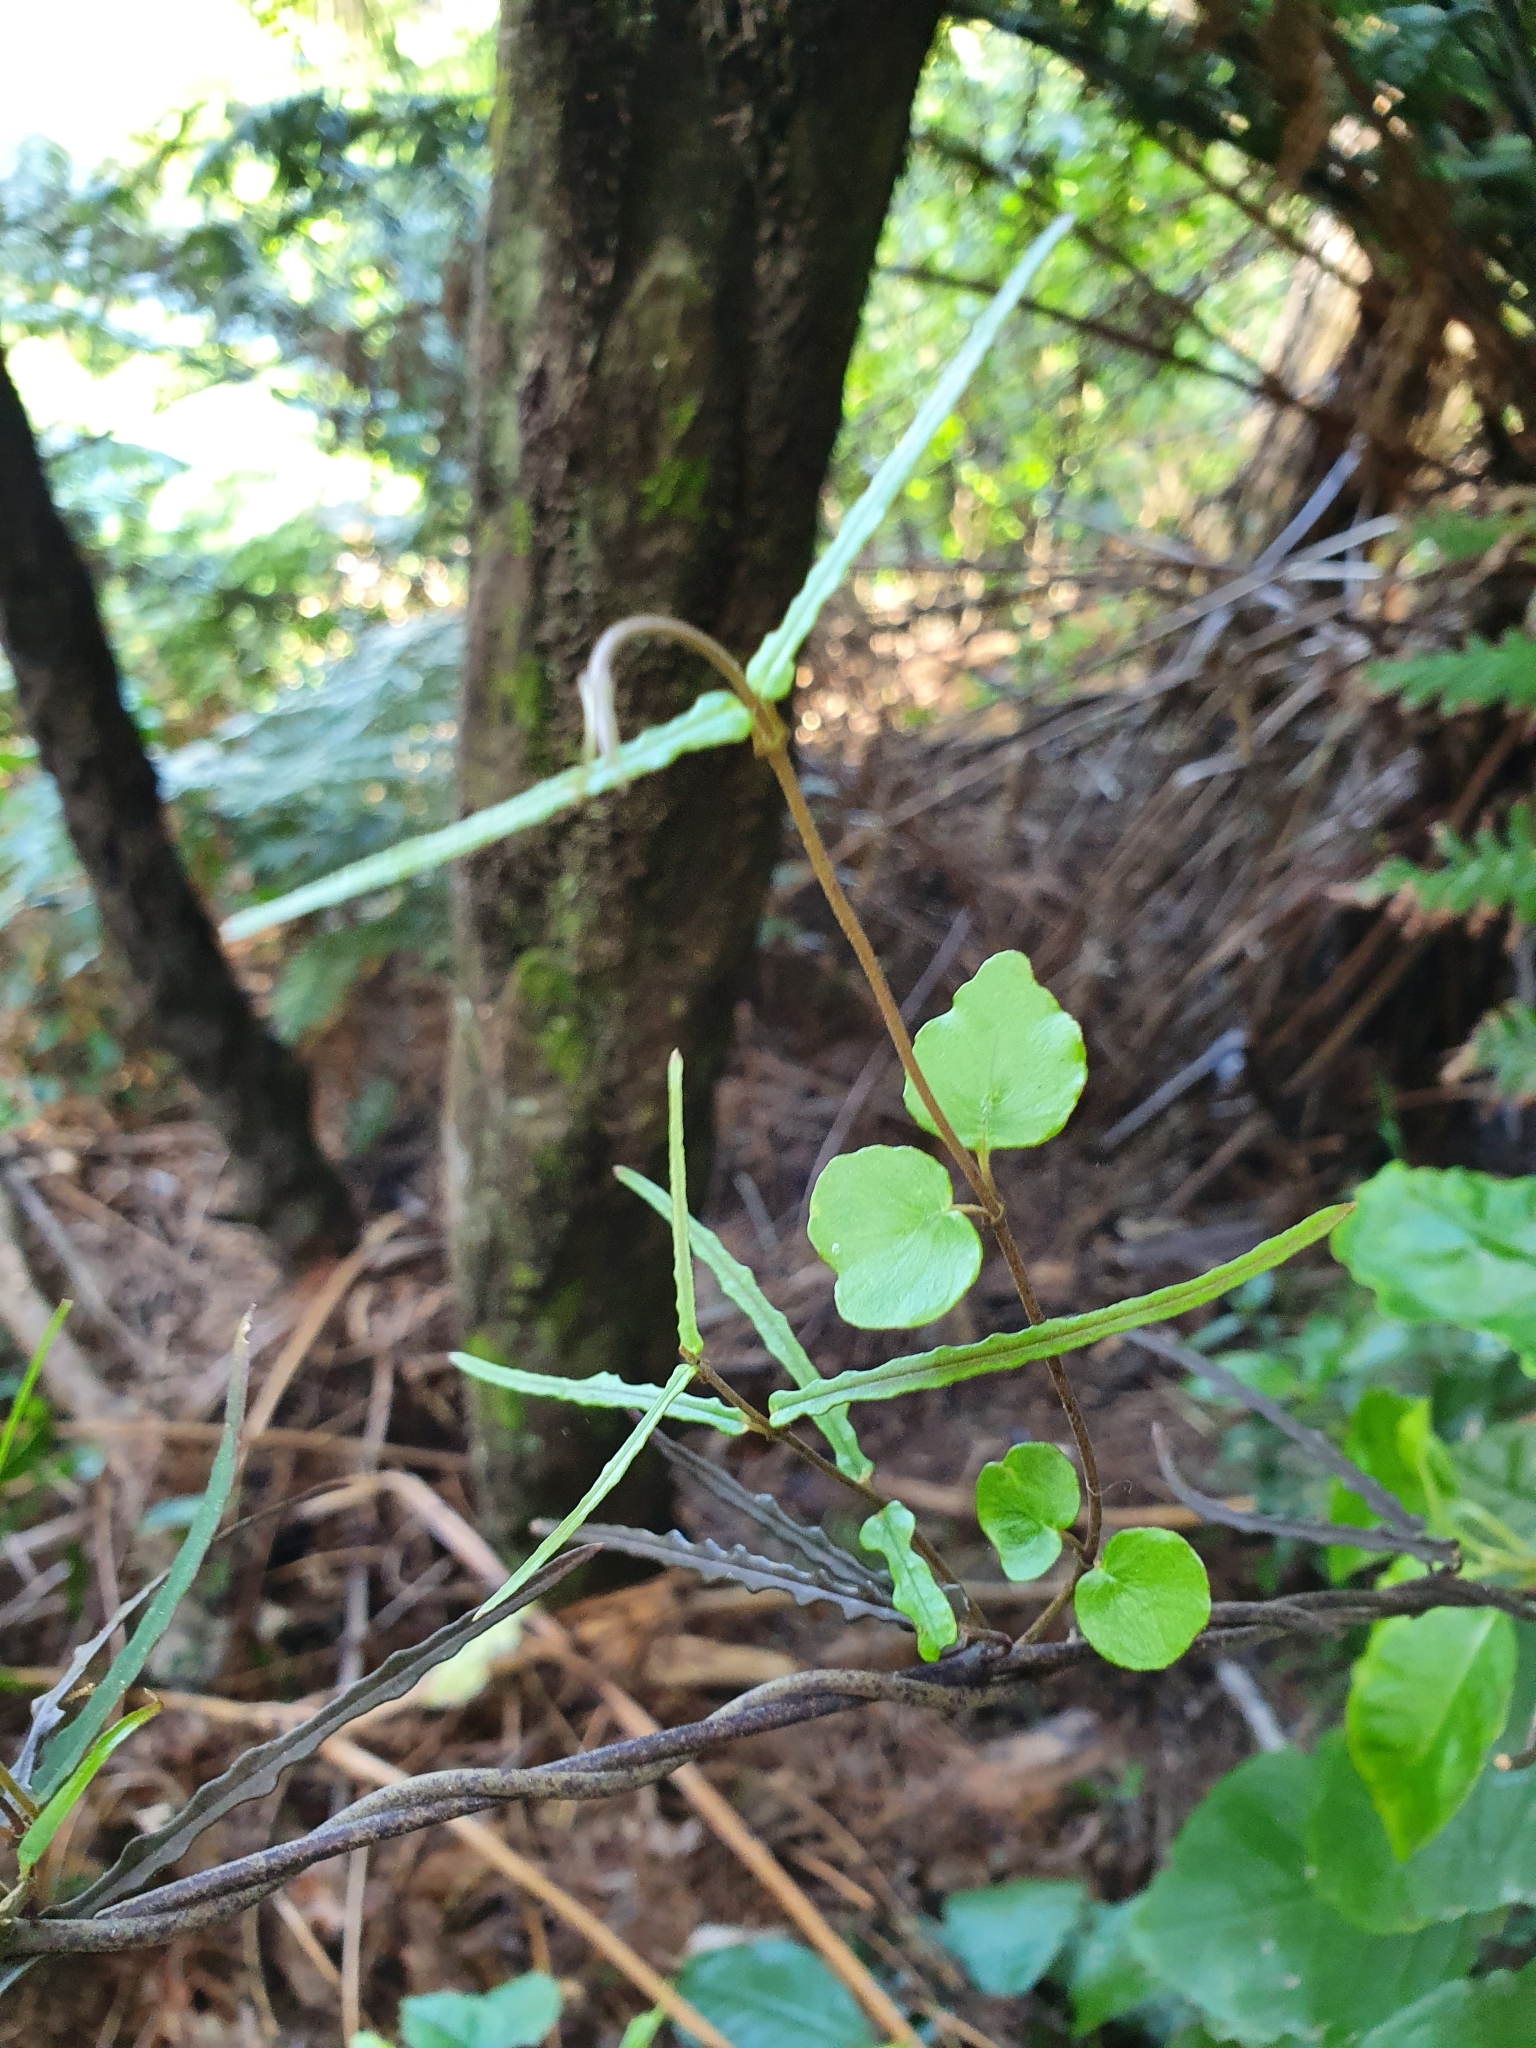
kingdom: Plantae
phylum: Tracheophyta
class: Magnoliopsida
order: Gentianales
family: Apocynaceae
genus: Parsonsia
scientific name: Parsonsia heterophylla
